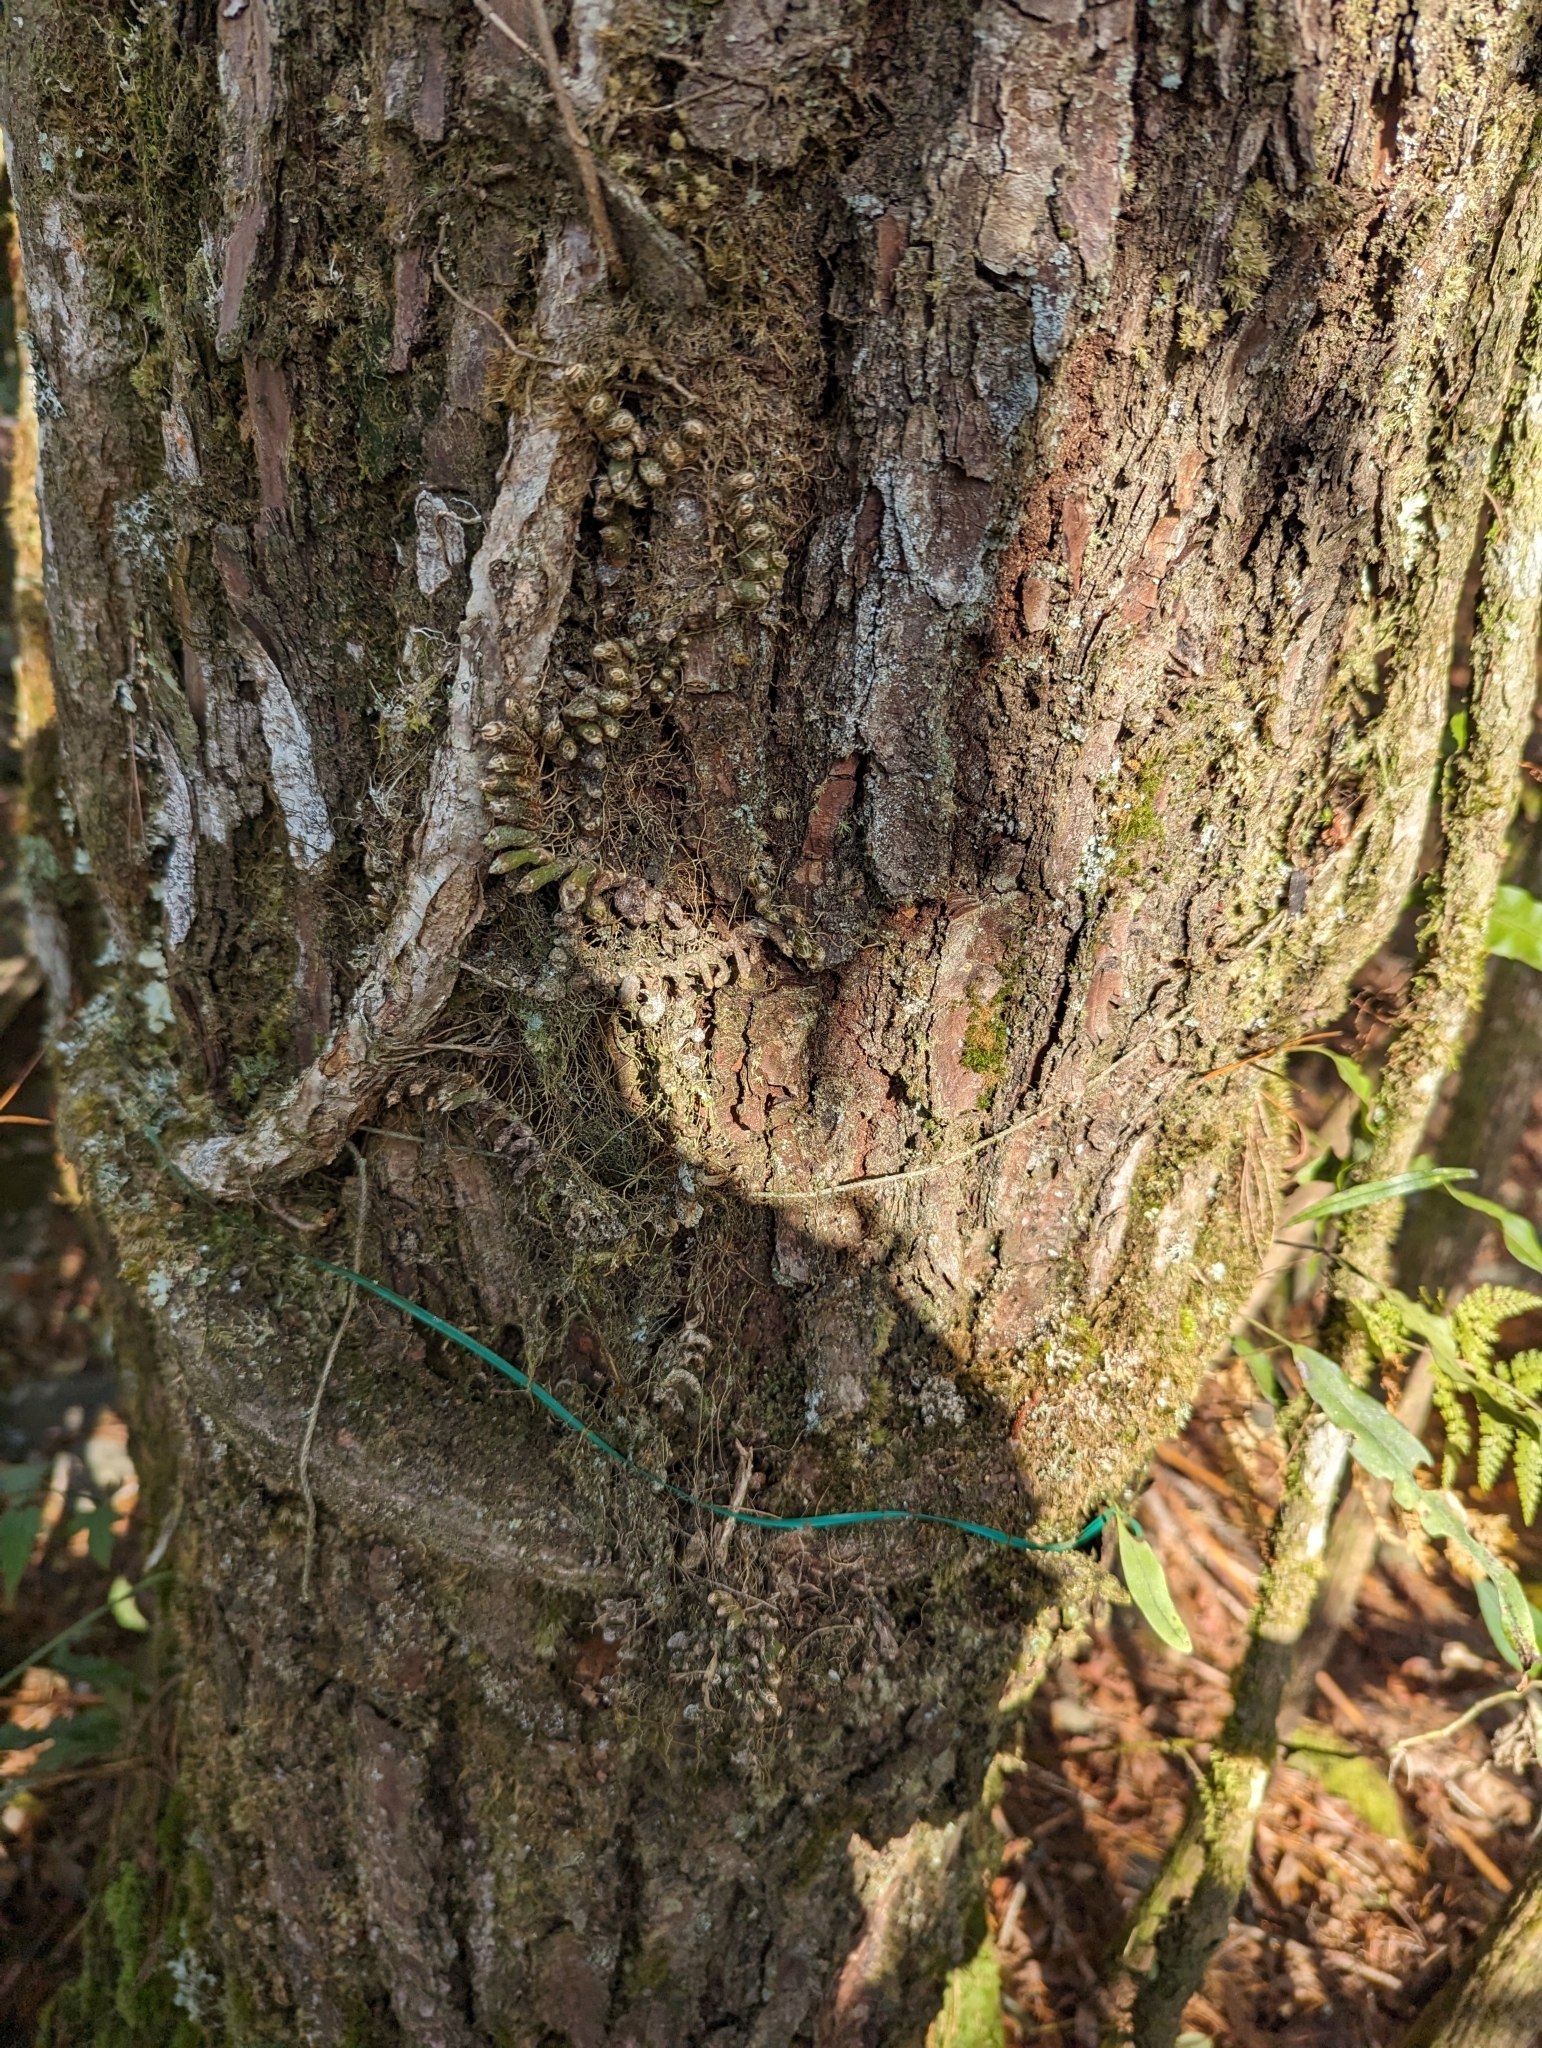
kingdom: Plantae
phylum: Tracheophyta
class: Liliopsida
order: Asparagales
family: Orchidaceae
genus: Pinalia
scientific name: Pinalia japonica
